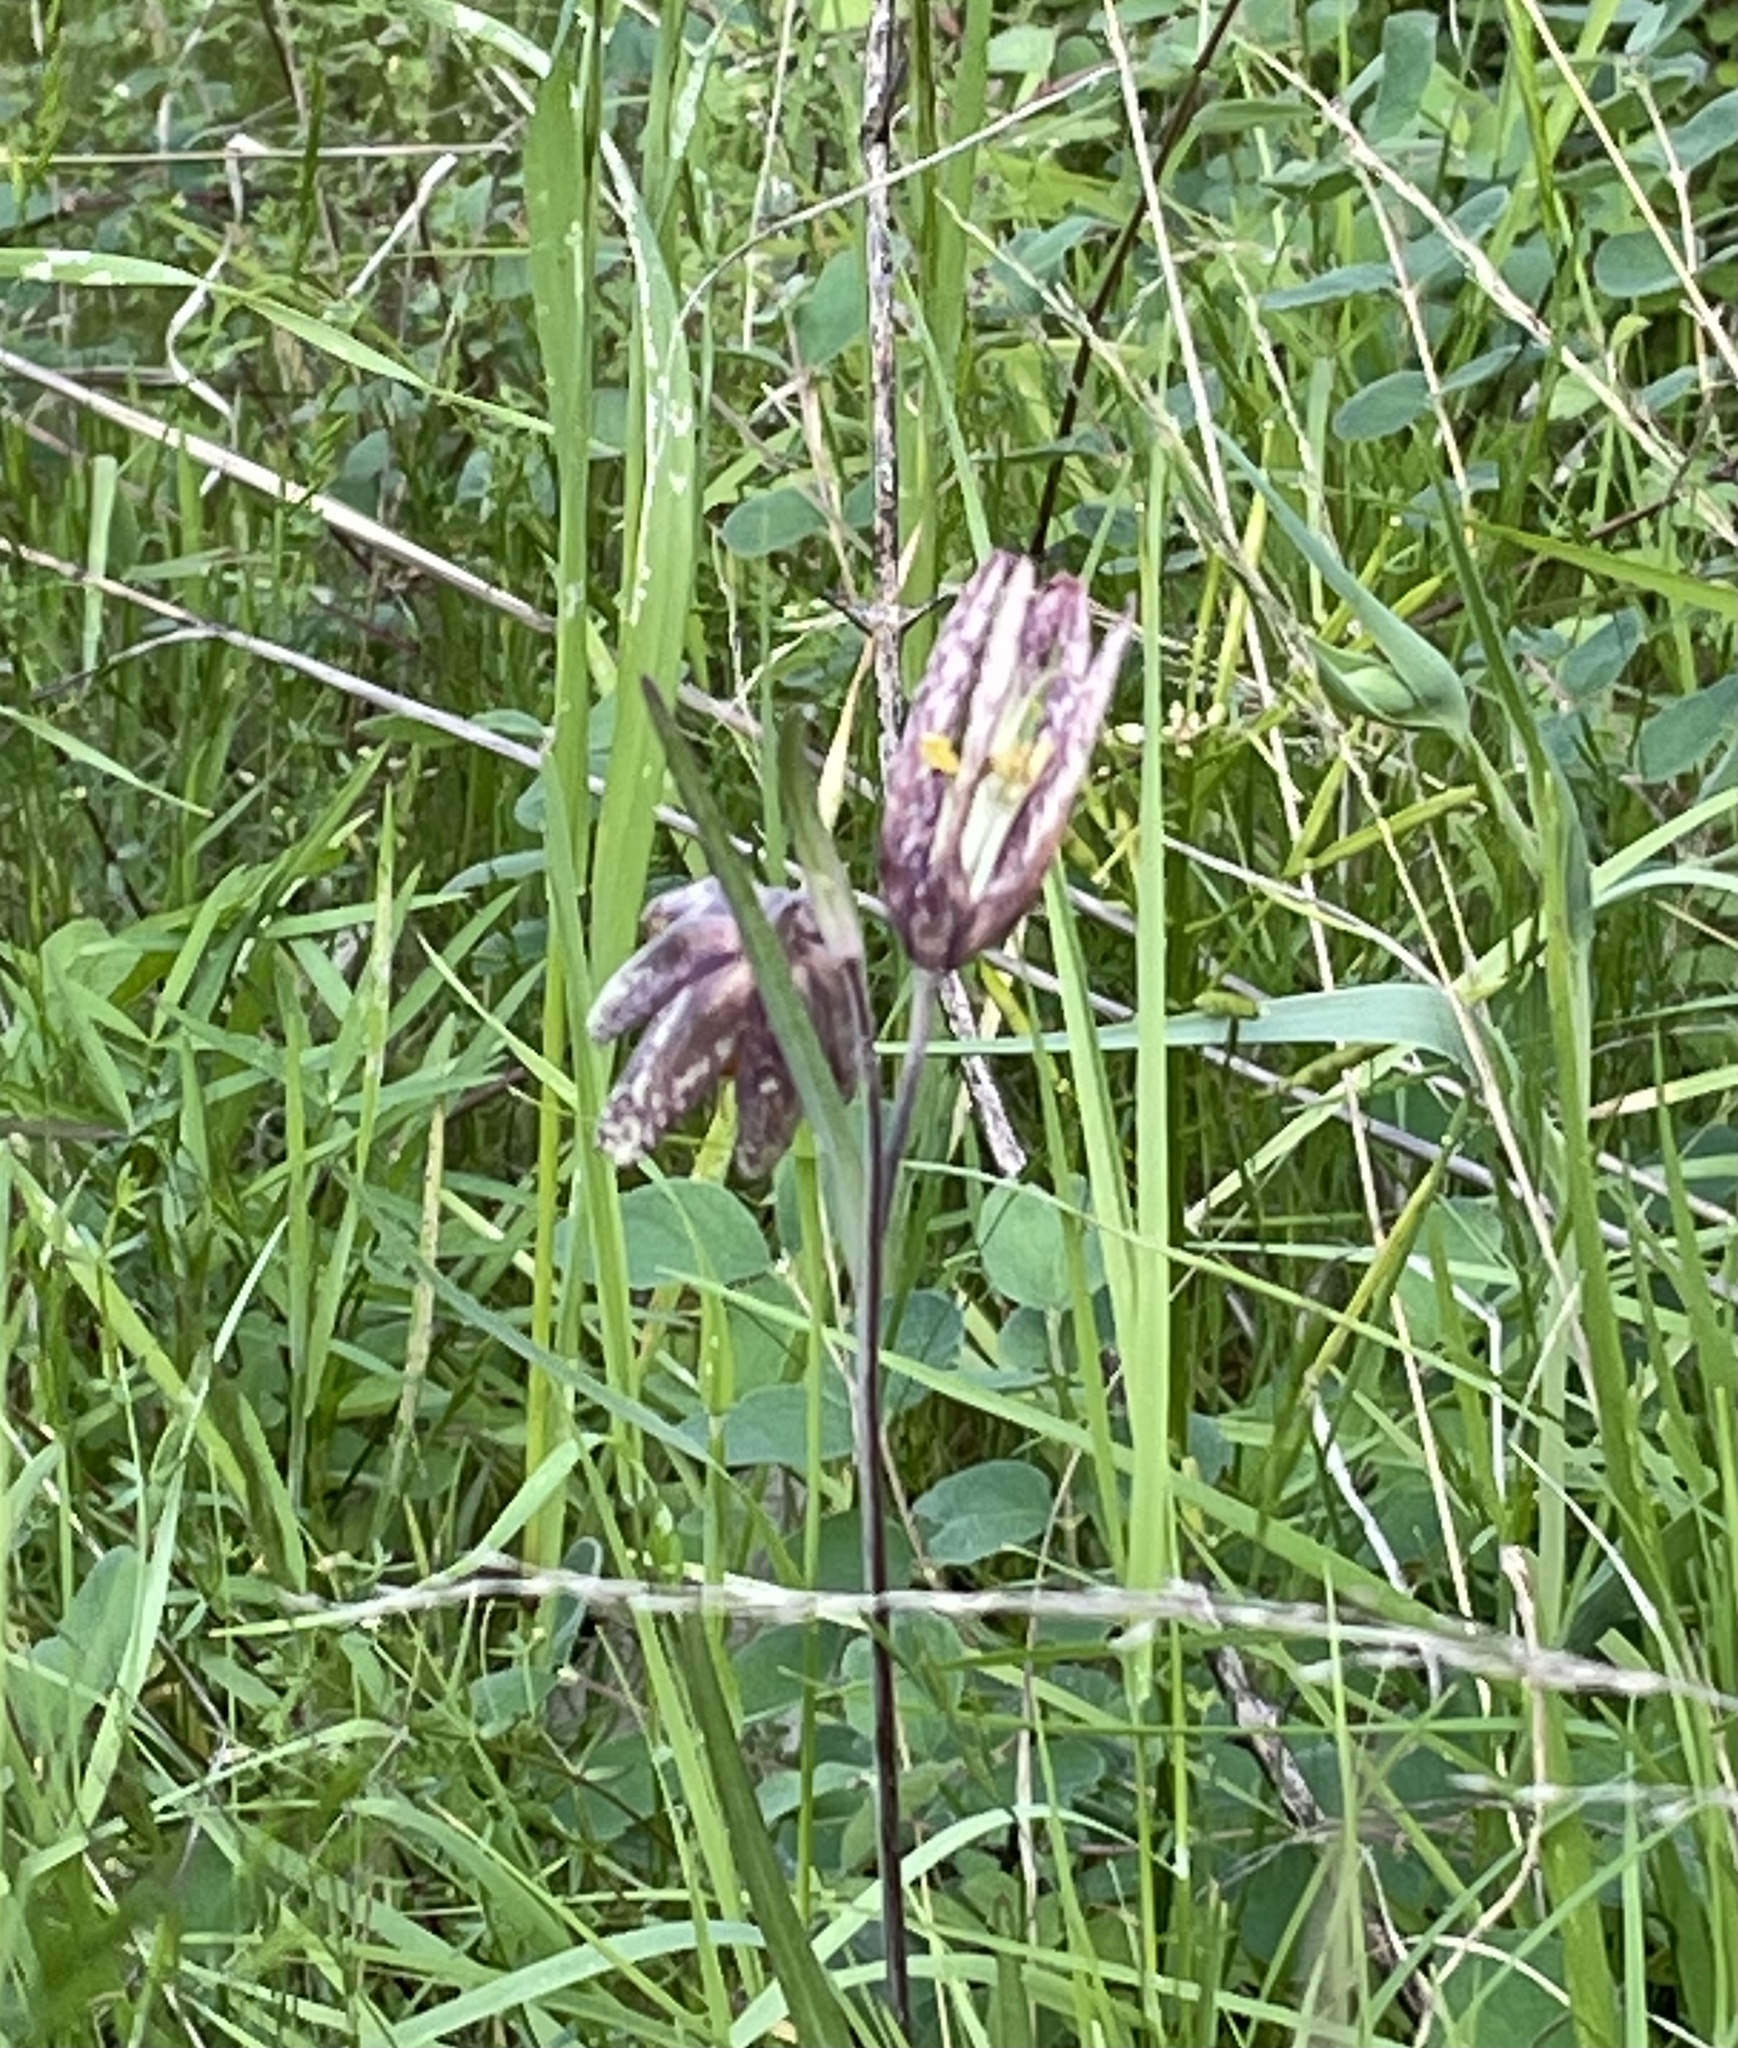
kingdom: Plantae
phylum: Tracheophyta
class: Liliopsida
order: Liliales
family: Liliaceae
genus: Fritillaria
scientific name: Fritillaria affinis
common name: Ojai fritillary
